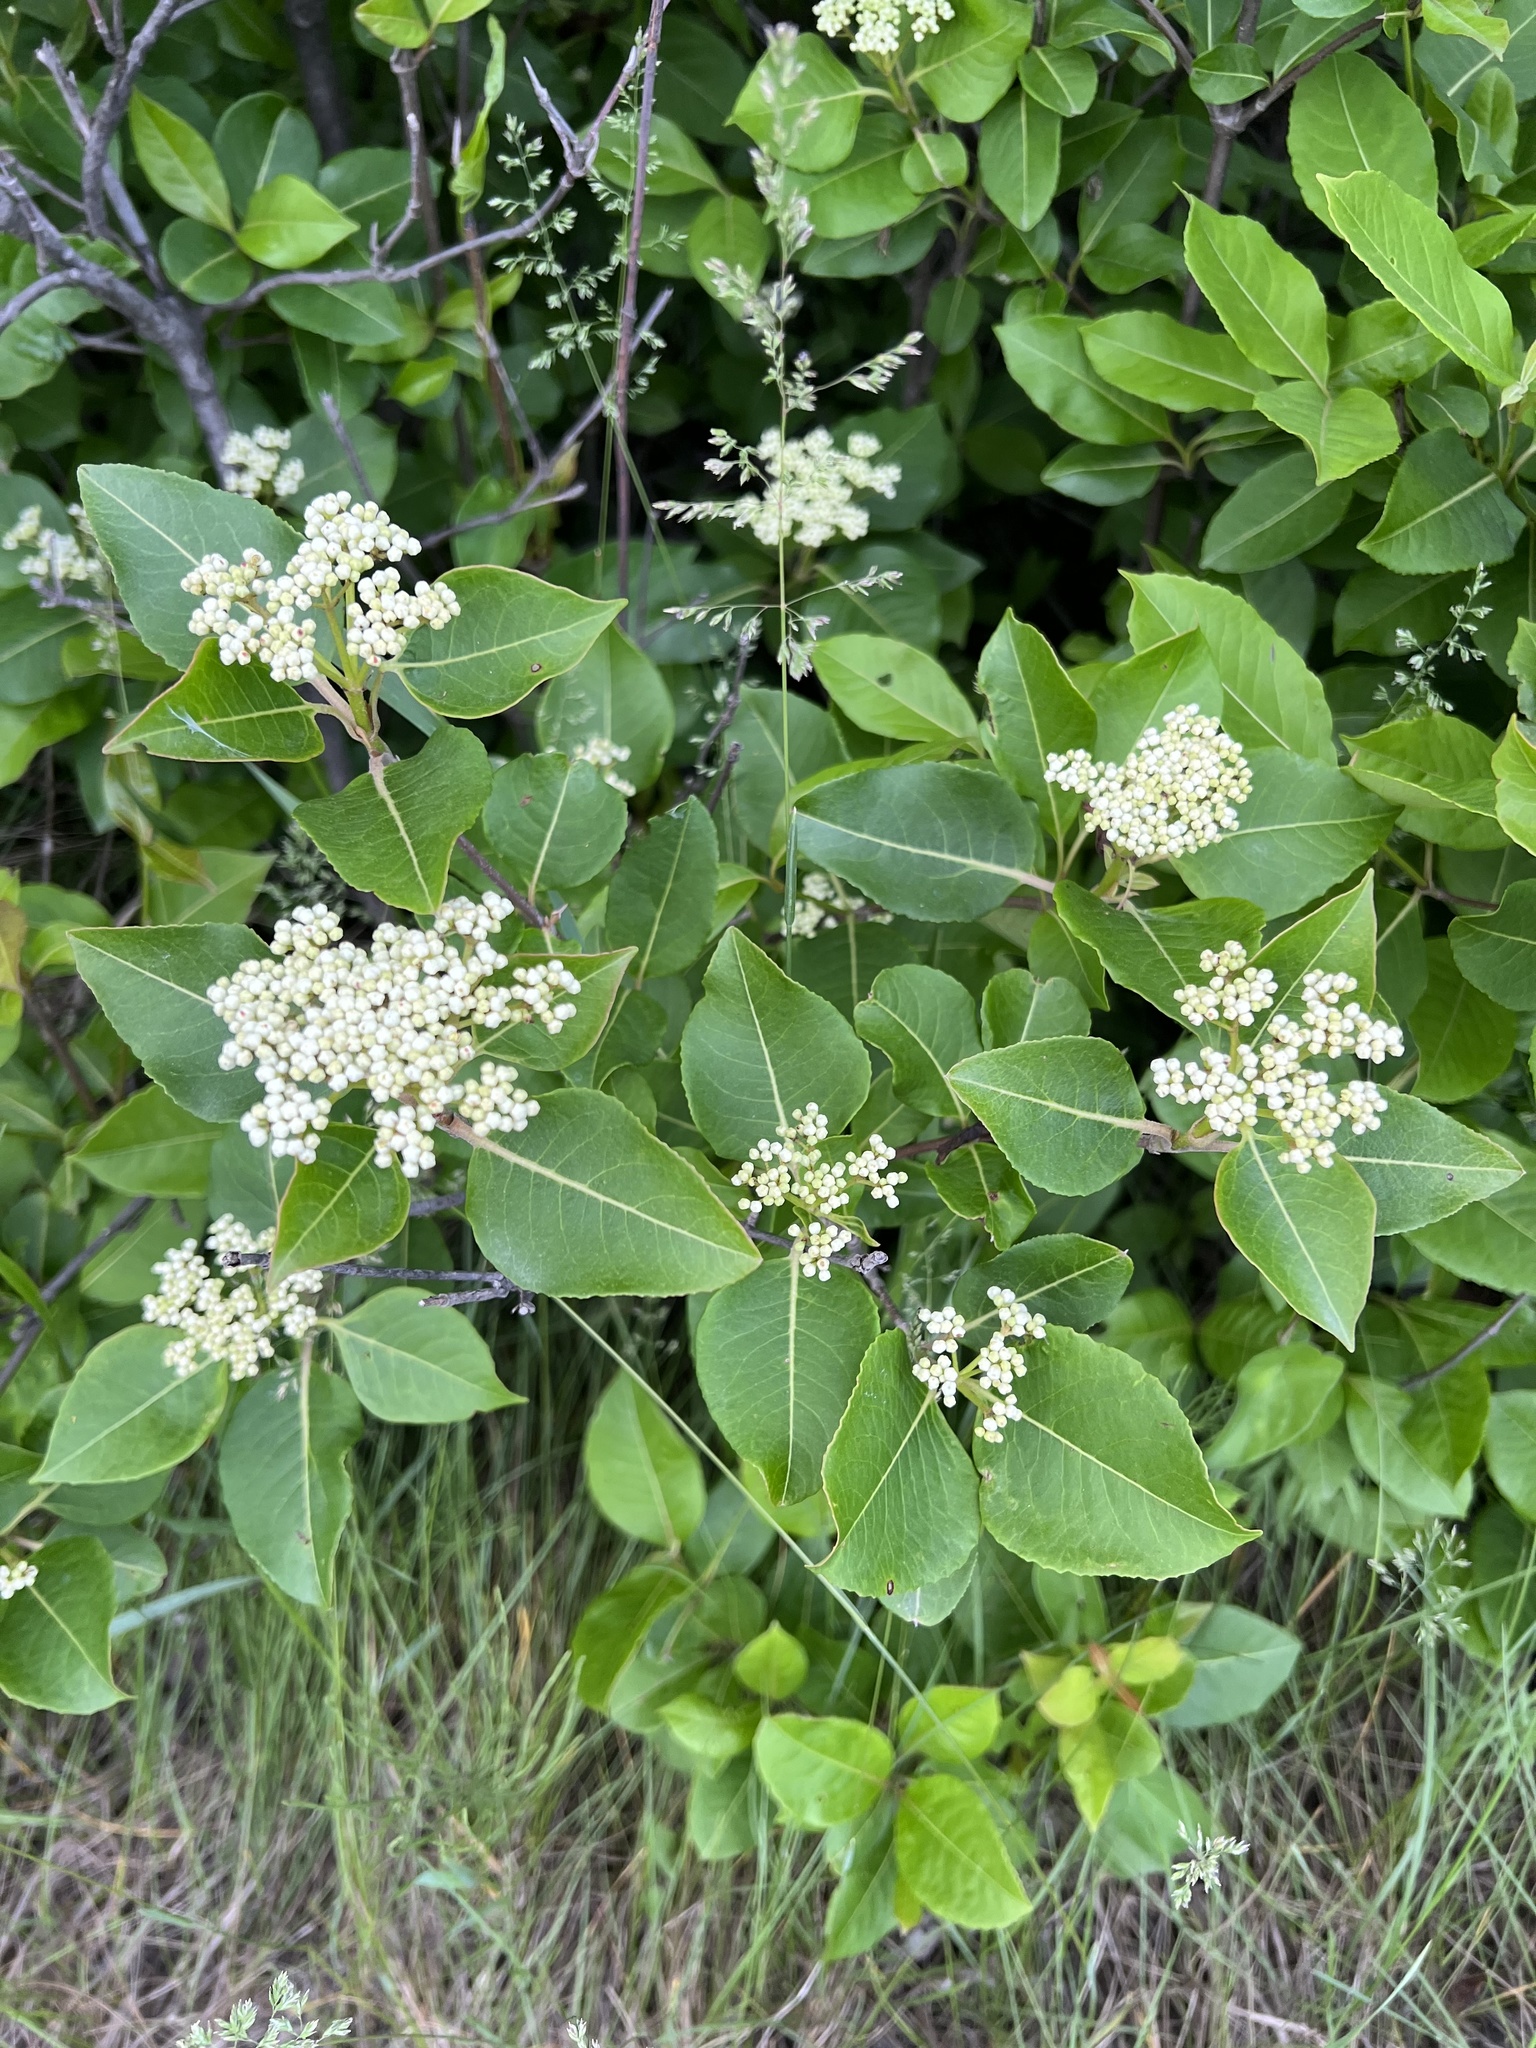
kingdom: Plantae
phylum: Tracheophyta
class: Magnoliopsida
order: Dipsacales
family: Viburnaceae
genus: Viburnum
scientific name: Viburnum cassinoides
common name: Swamp haw
